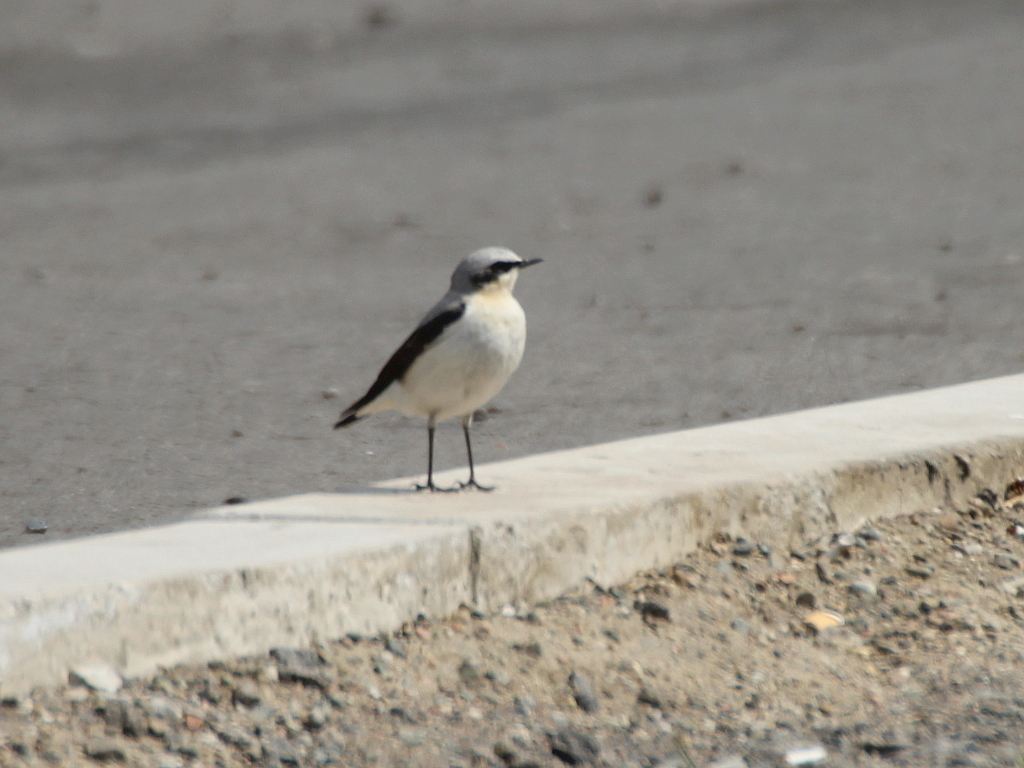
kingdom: Animalia
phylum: Chordata
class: Aves
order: Passeriformes
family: Muscicapidae
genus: Oenanthe
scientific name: Oenanthe oenanthe
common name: Northern wheatear
